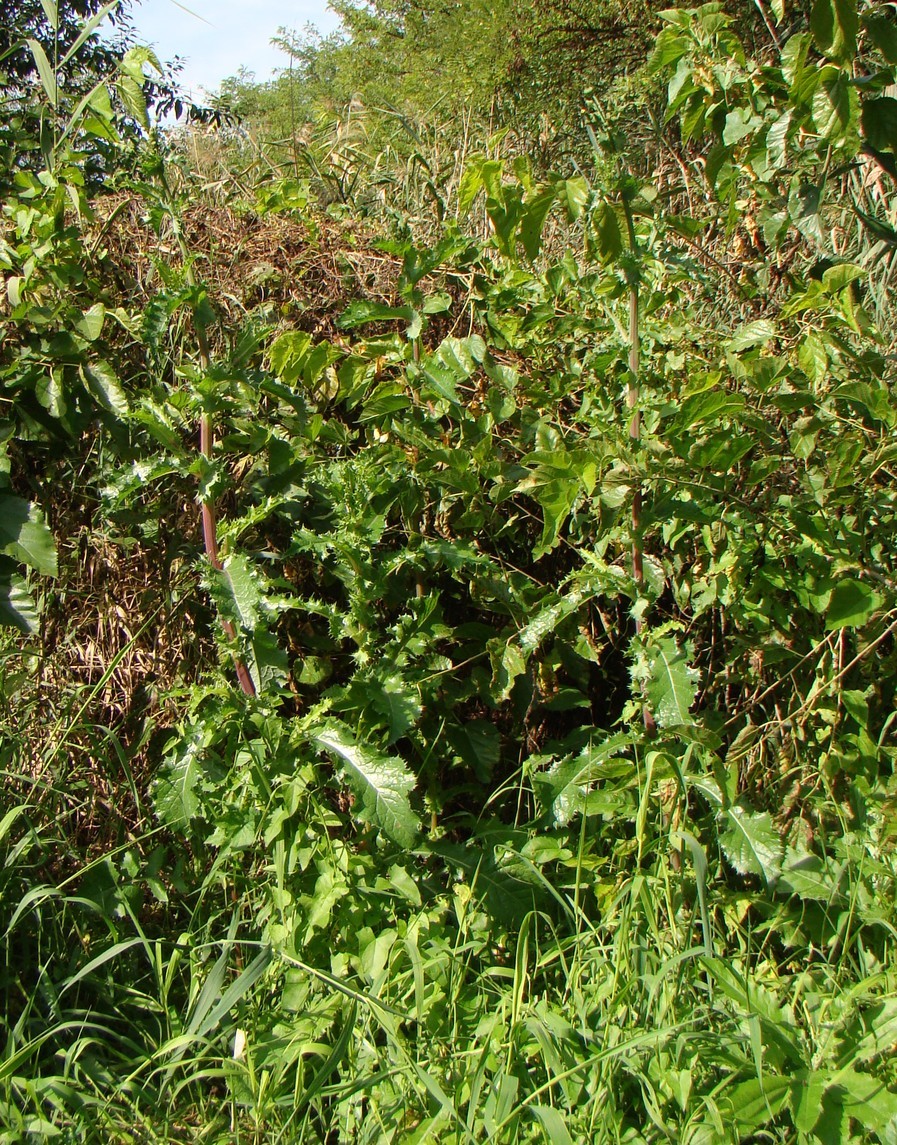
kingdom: Plantae
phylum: Tracheophyta
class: Magnoliopsida
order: Asterales
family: Asteraceae
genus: Sonchus
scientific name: Sonchus asper
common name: Prickly sow-thistle
